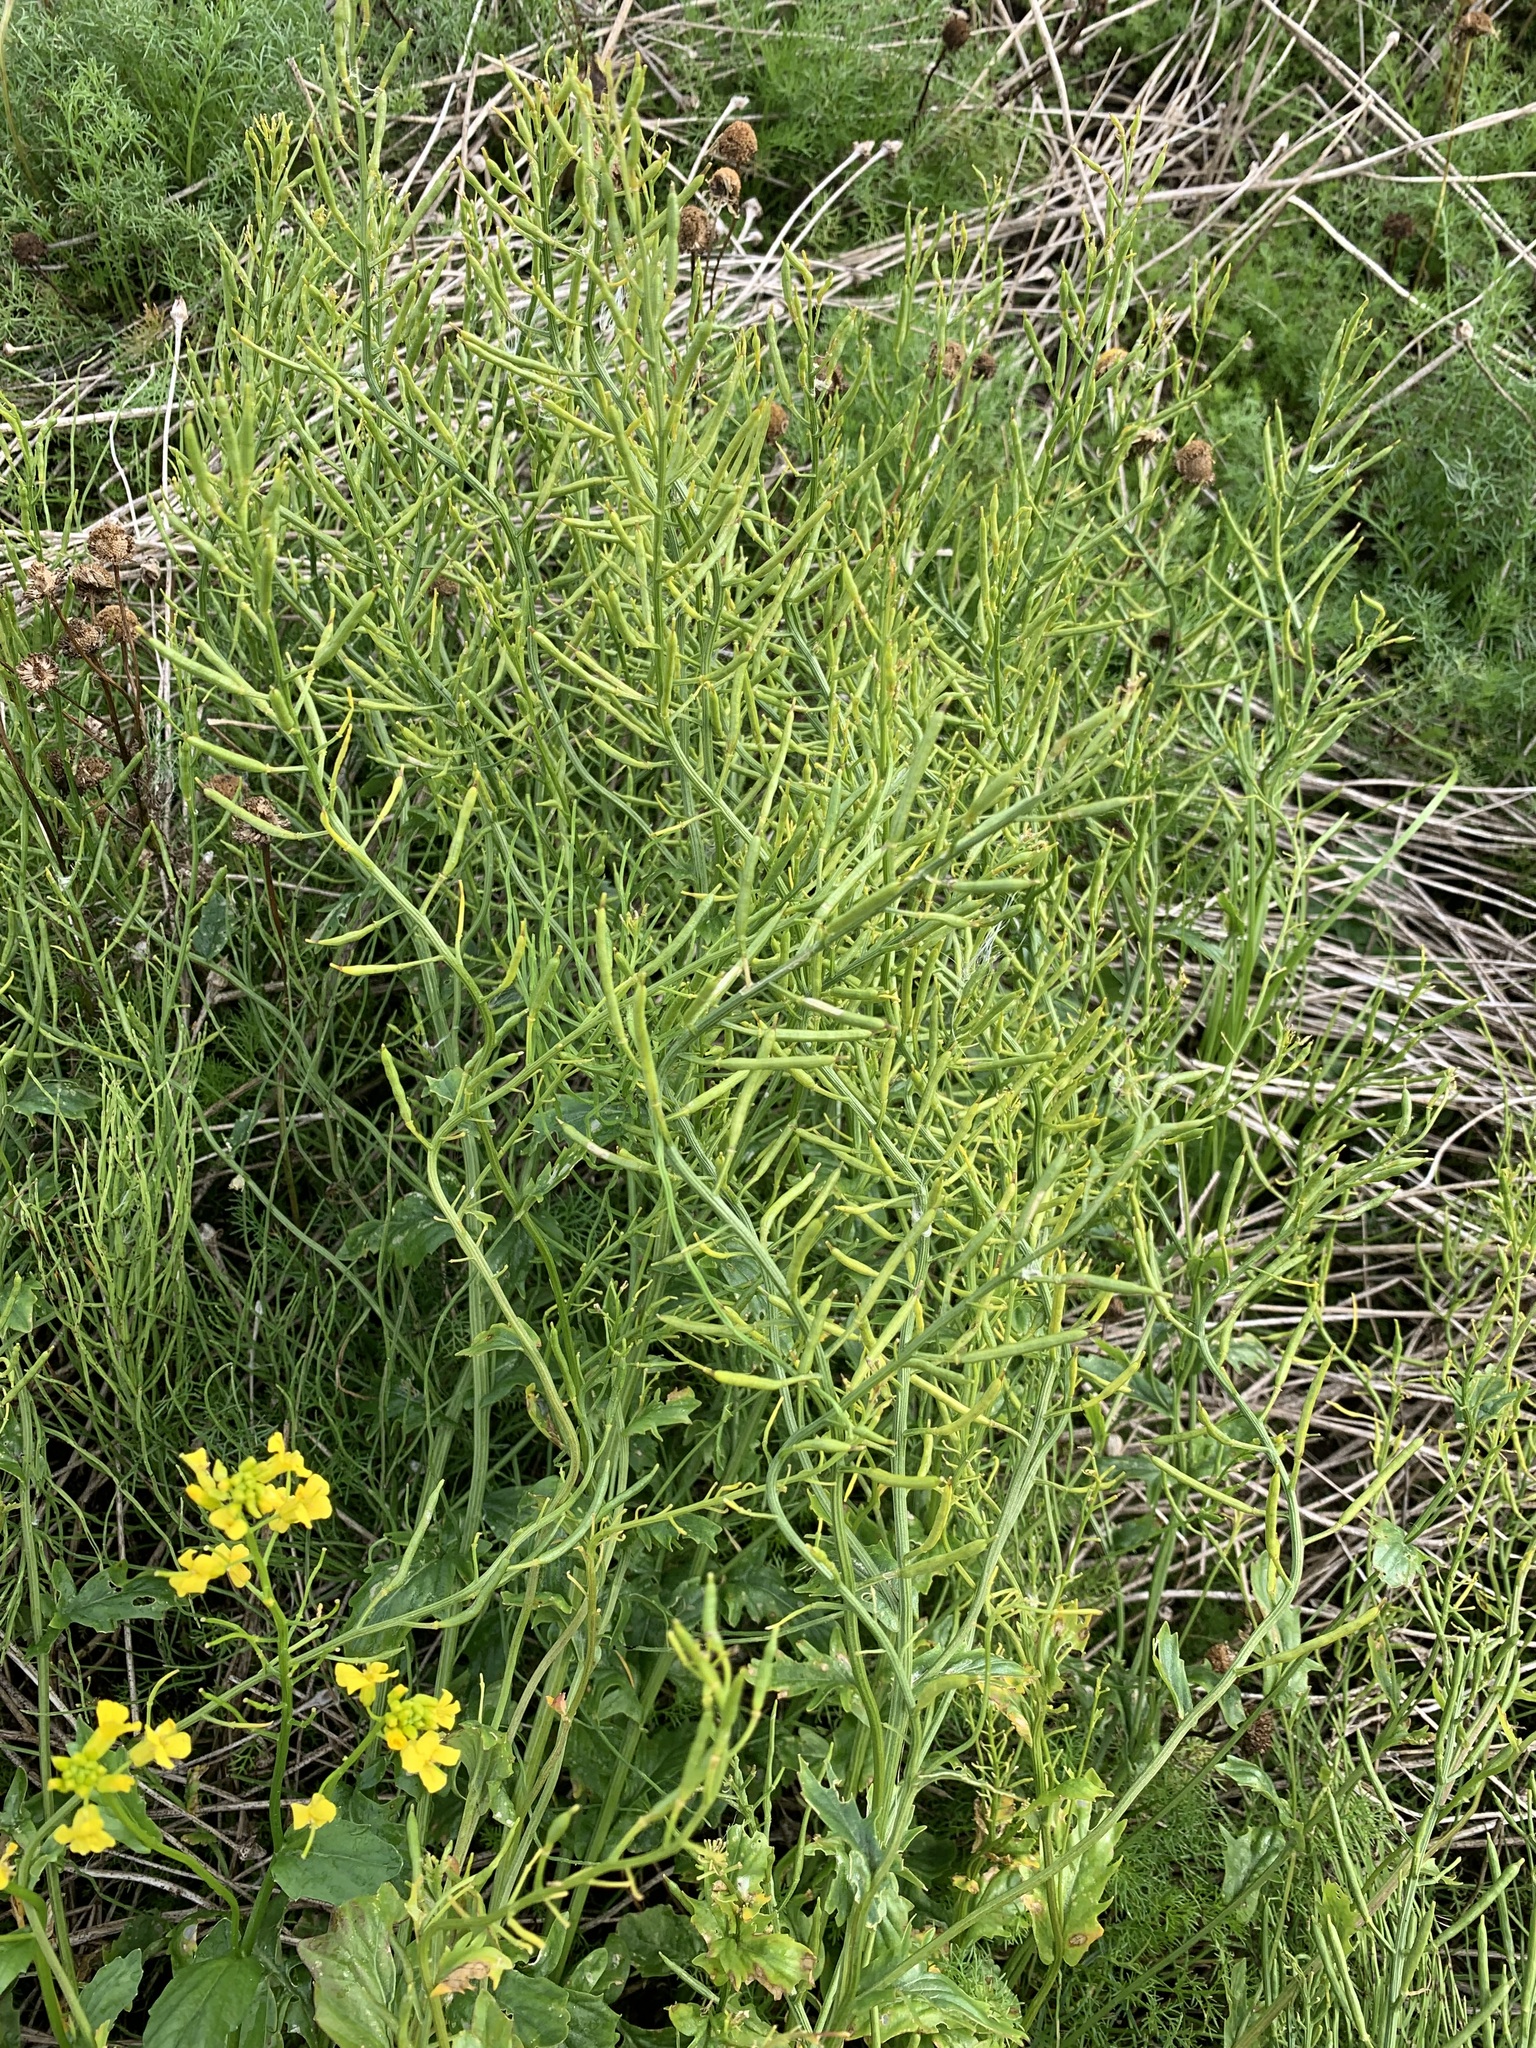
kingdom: Plantae
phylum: Tracheophyta
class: Magnoliopsida
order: Brassicales
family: Brassicaceae
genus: Barbarea
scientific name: Barbarea vulgaris
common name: Cressy-greens
